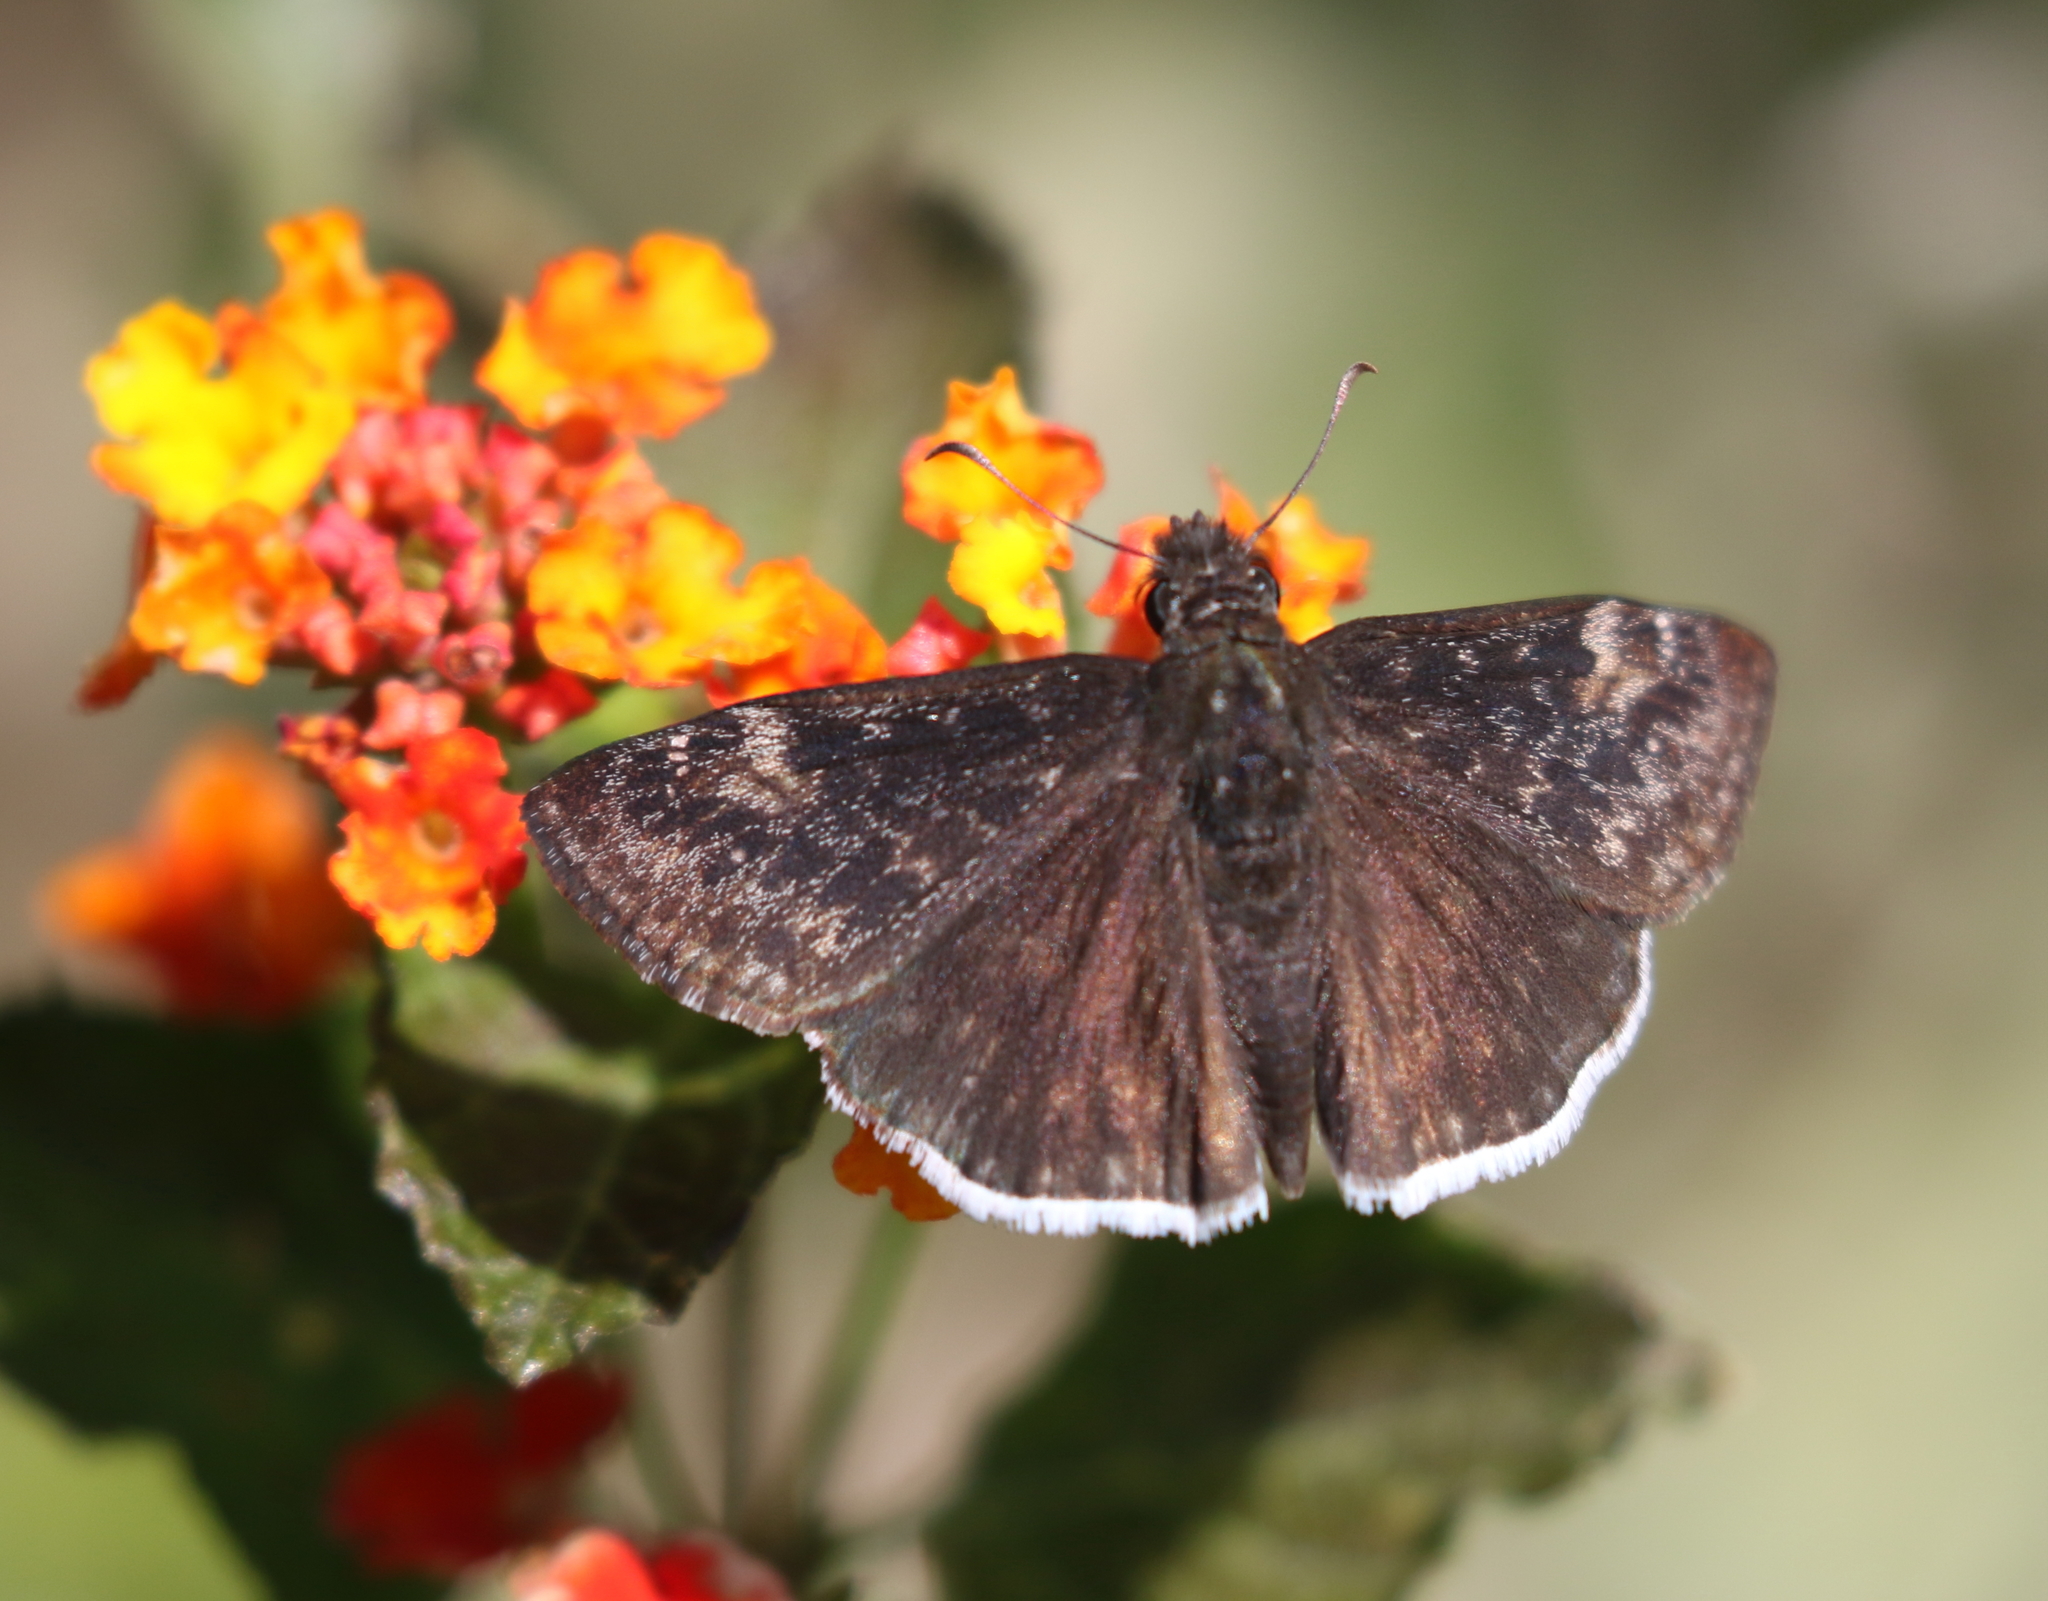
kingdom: Animalia
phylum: Arthropoda
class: Insecta
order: Lepidoptera
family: Hesperiidae
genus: Erynnis
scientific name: Erynnis funeralis
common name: Funereal duskywing
